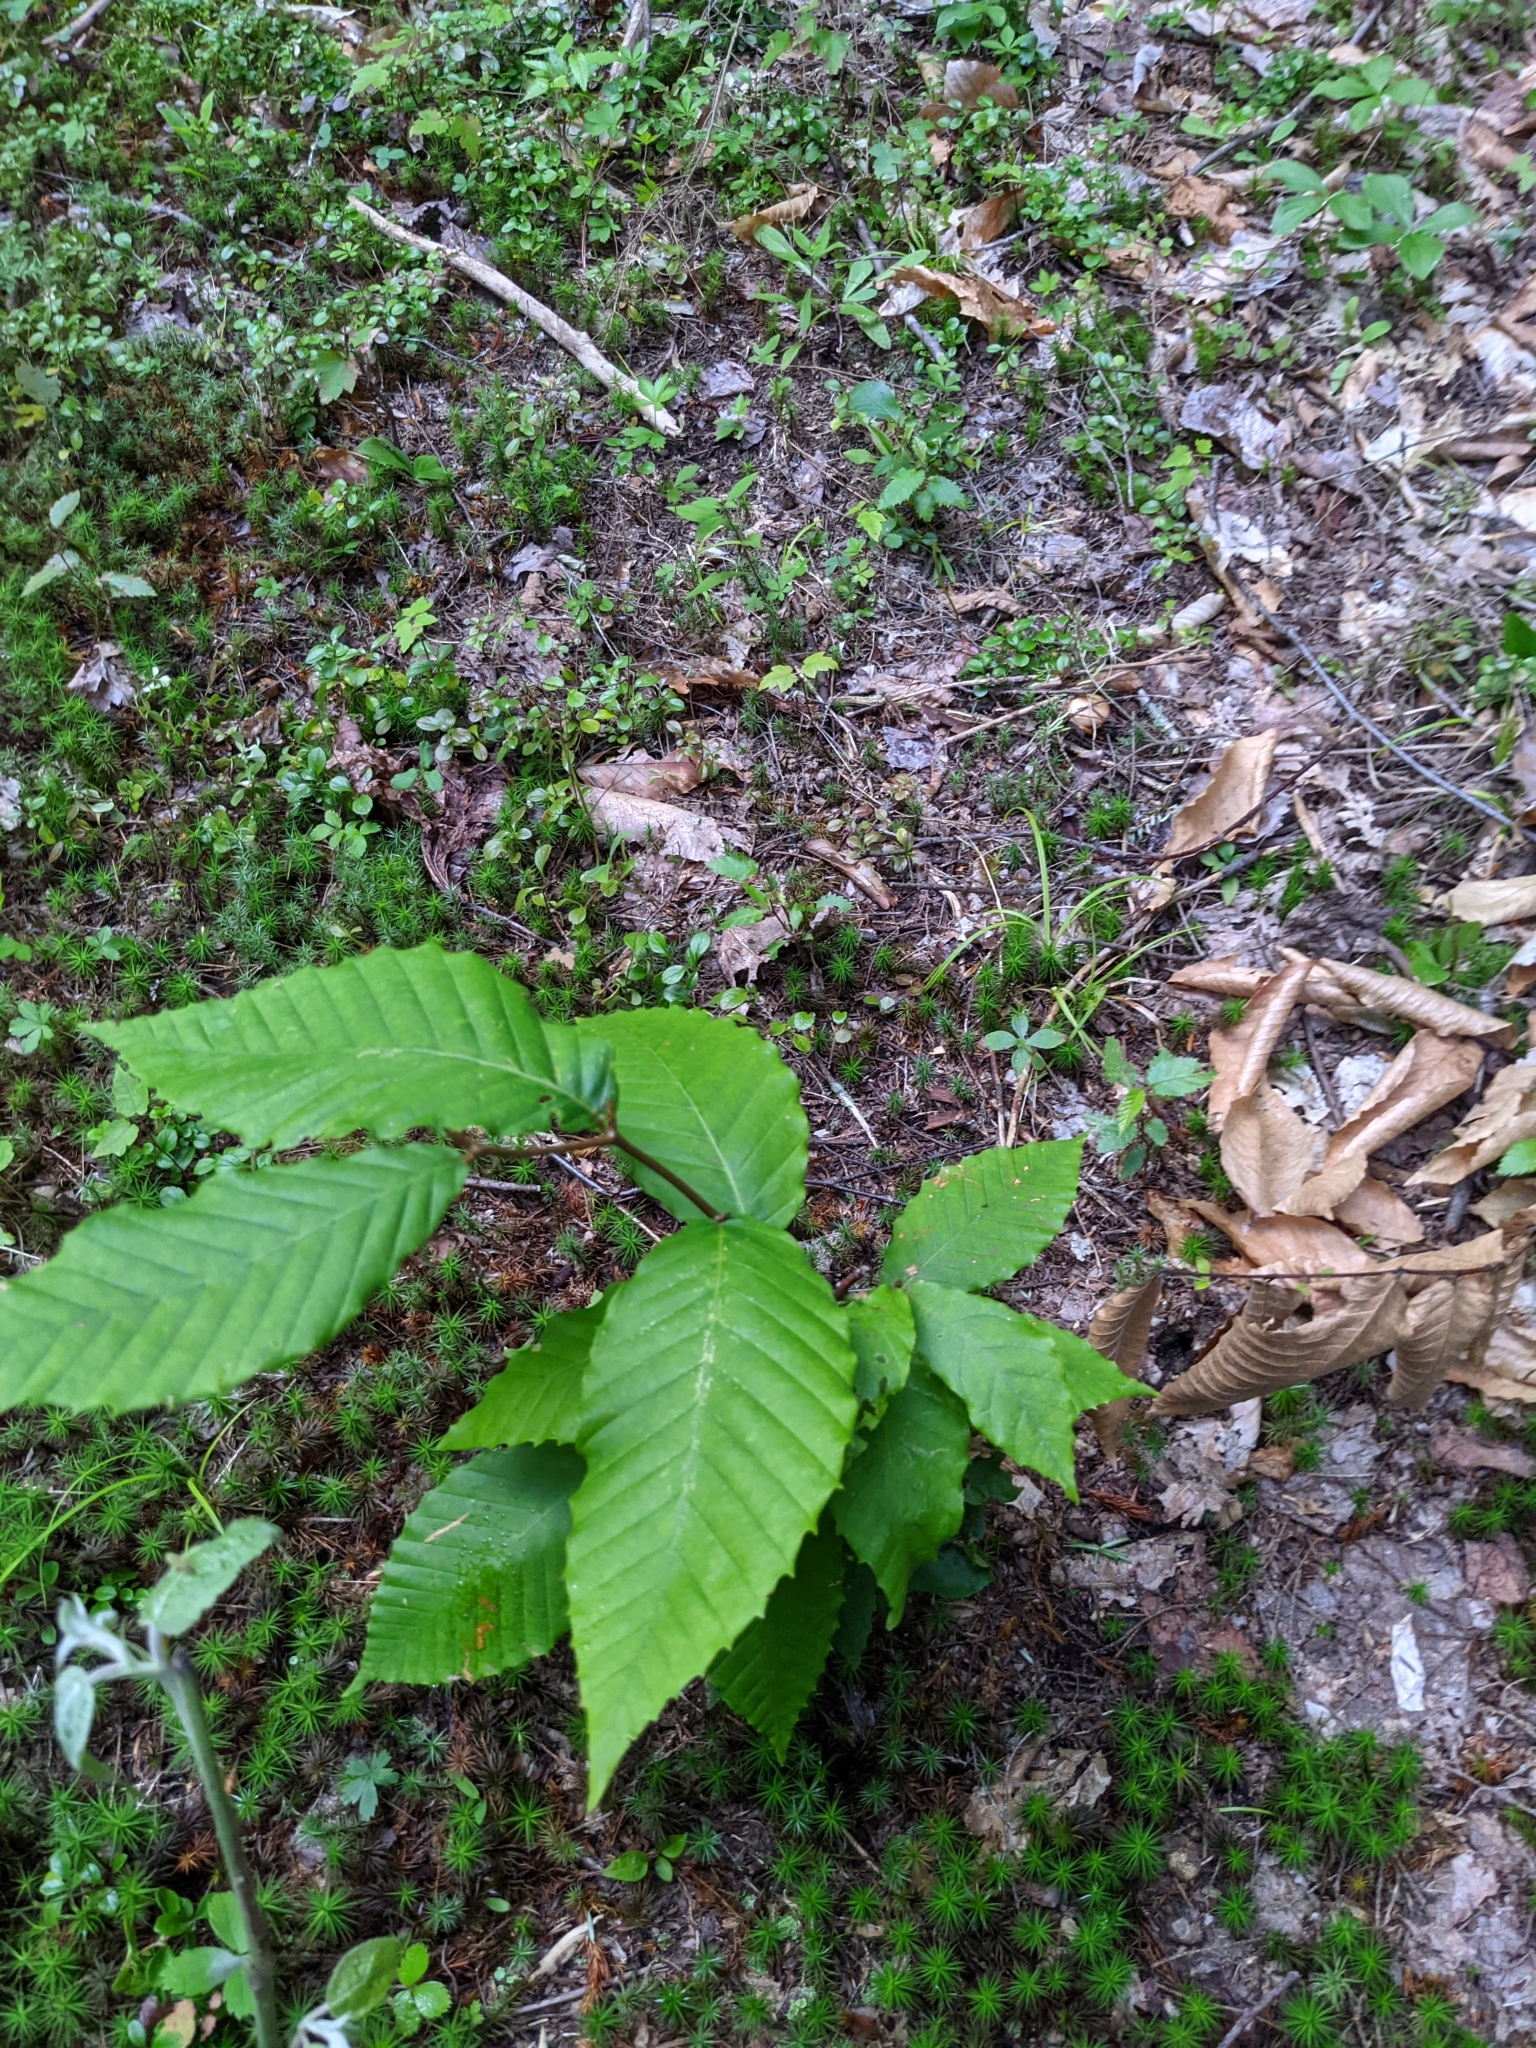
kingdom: Plantae
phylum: Tracheophyta
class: Magnoliopsida
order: Fagales
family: Fagaceae
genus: Fagus
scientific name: Fagus grandifolia
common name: American beech
